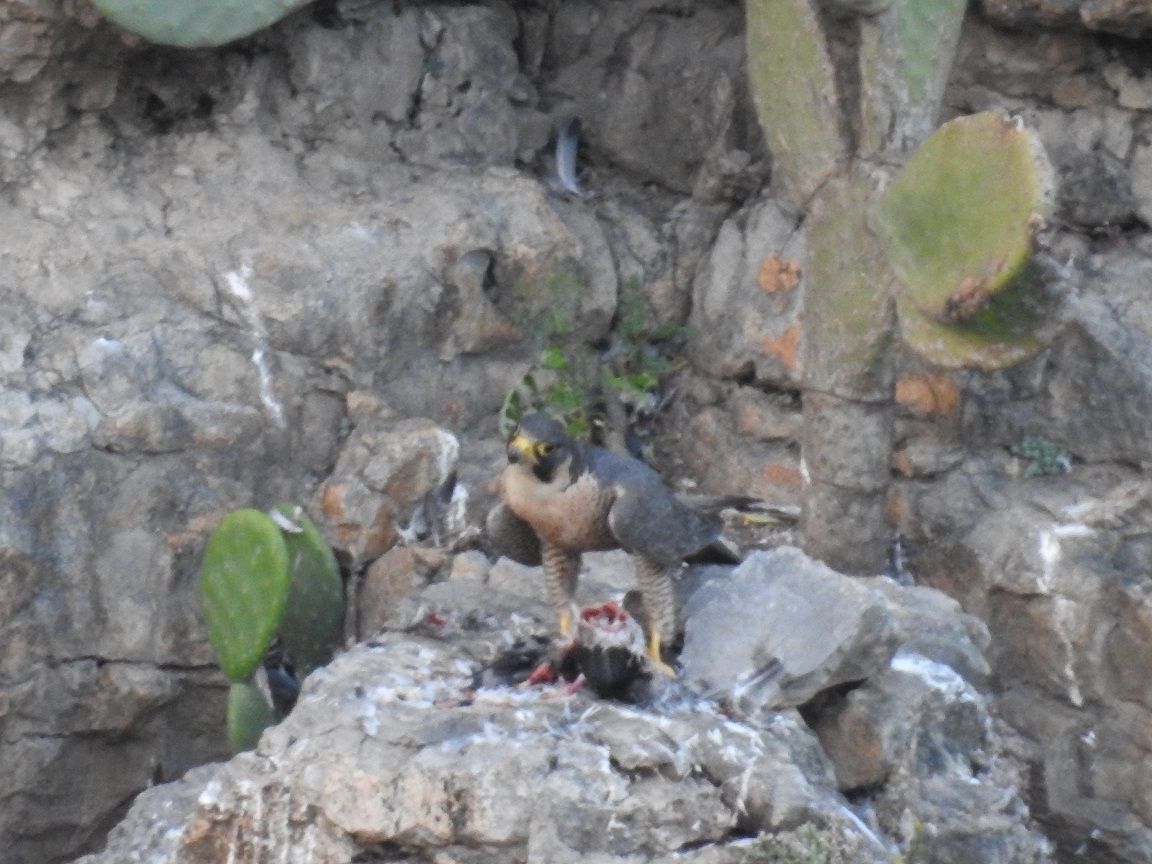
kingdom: Animalia
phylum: Chordata
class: Aves
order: Falconiformes
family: Falconidae
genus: Falco
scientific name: Falco peregrinus
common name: Peregrine falcon
